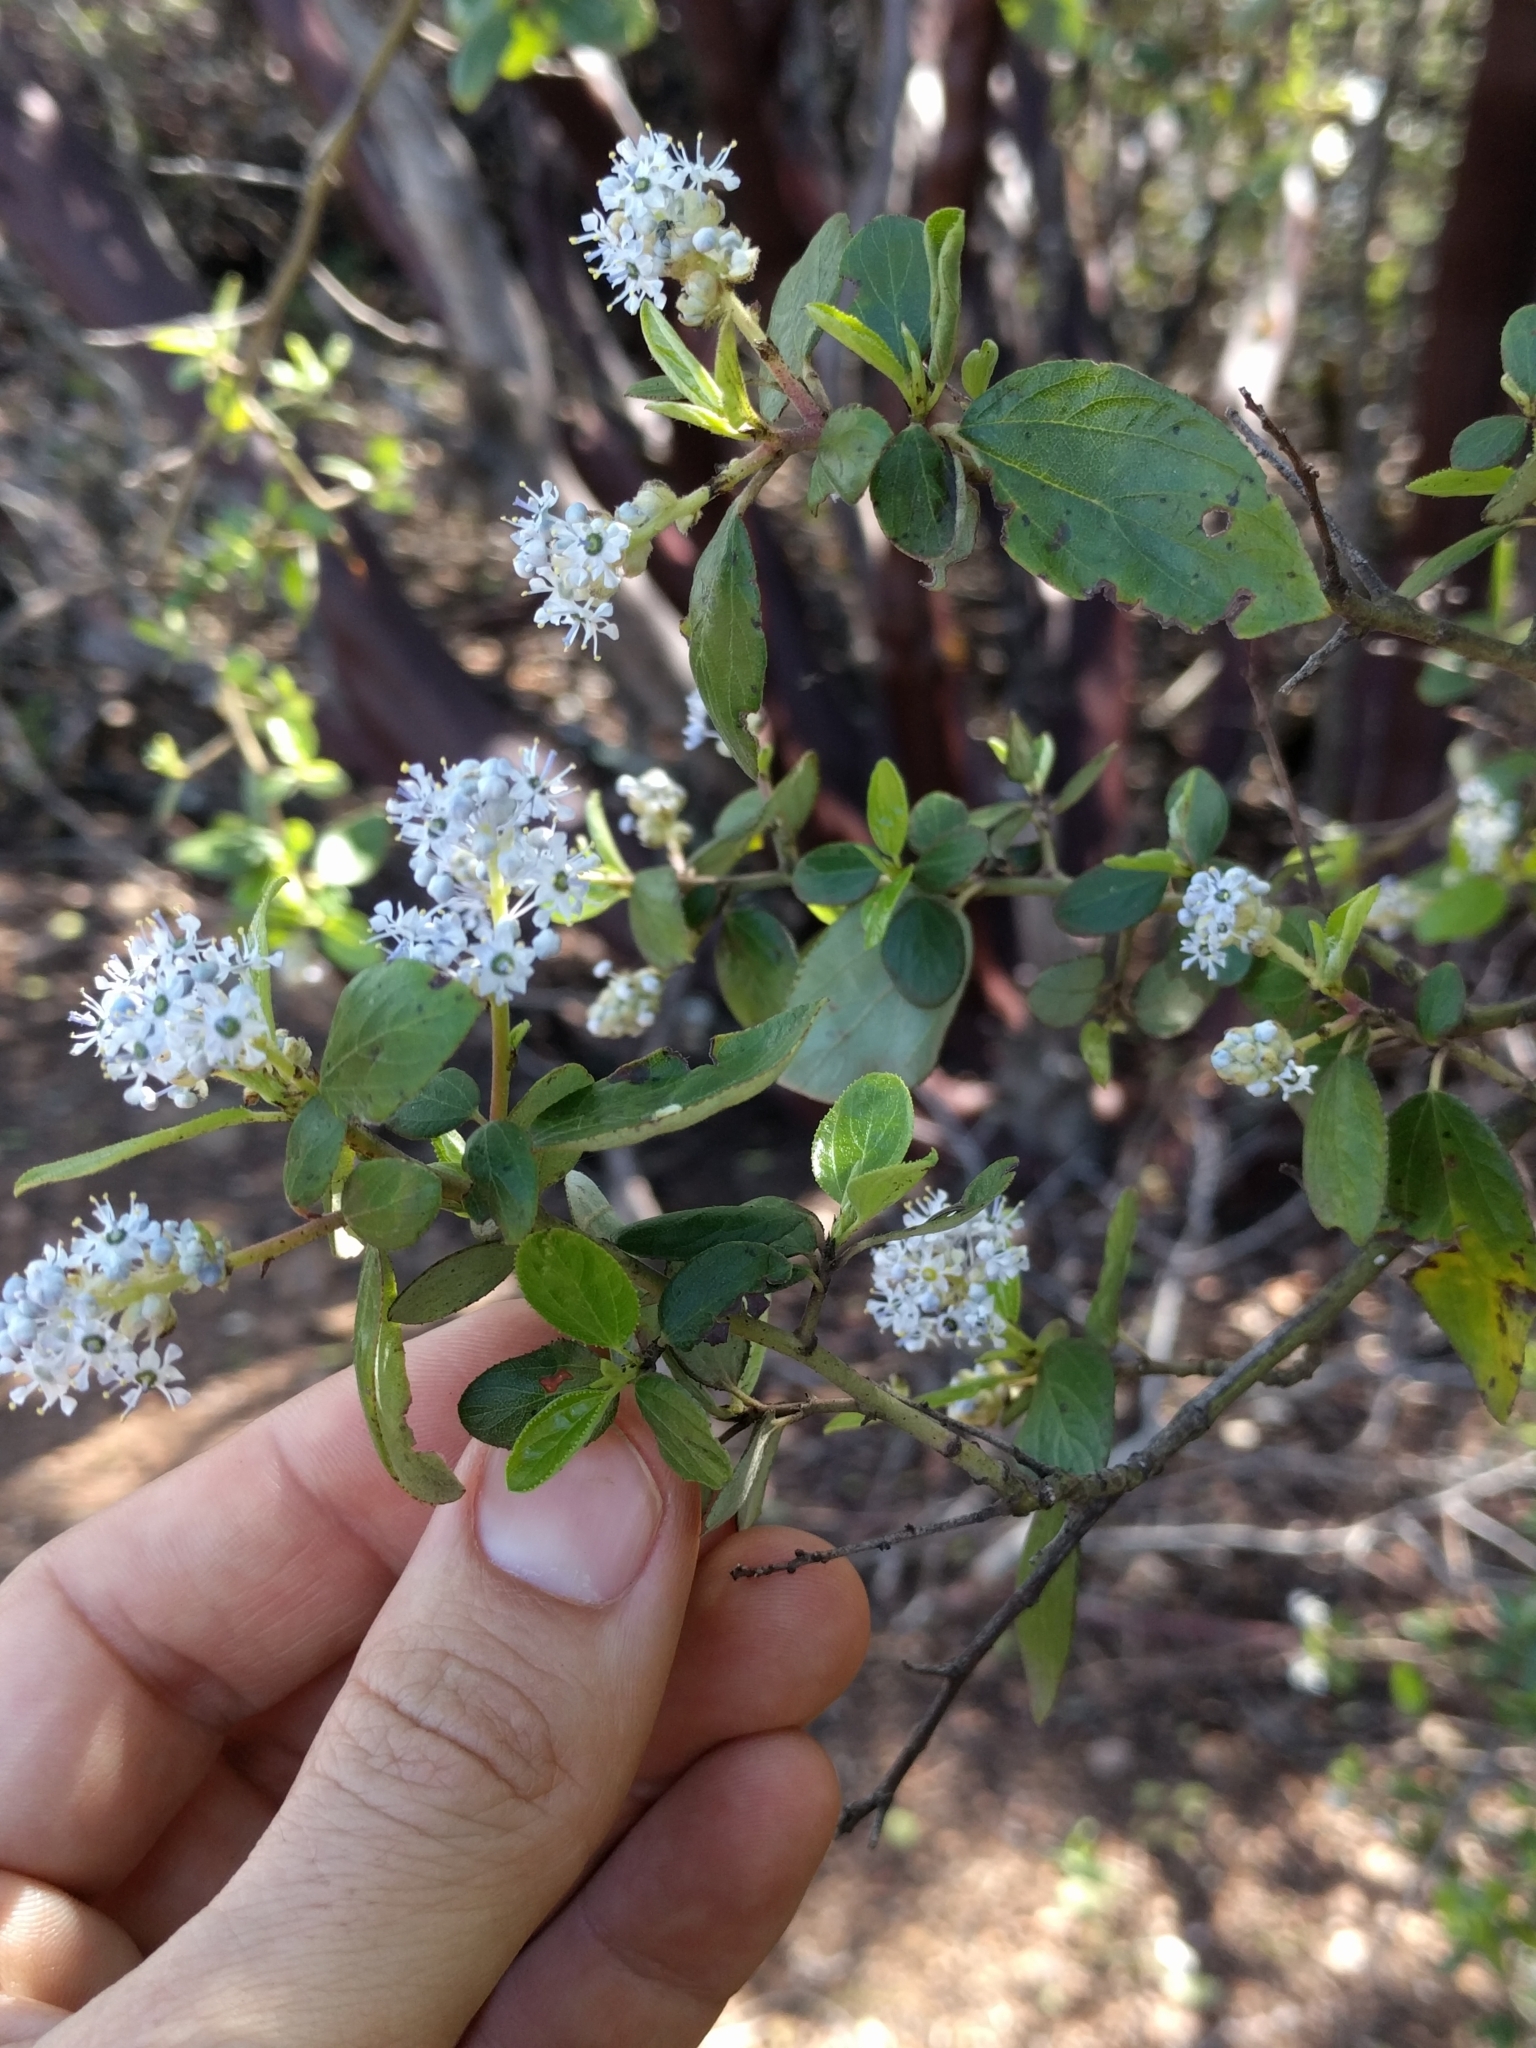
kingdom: Plantae
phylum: Tracheophyta
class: Magnoliopsida
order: Rosales
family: Rhamnaceae
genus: Ceanothus
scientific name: Ceanothus oliganthus
